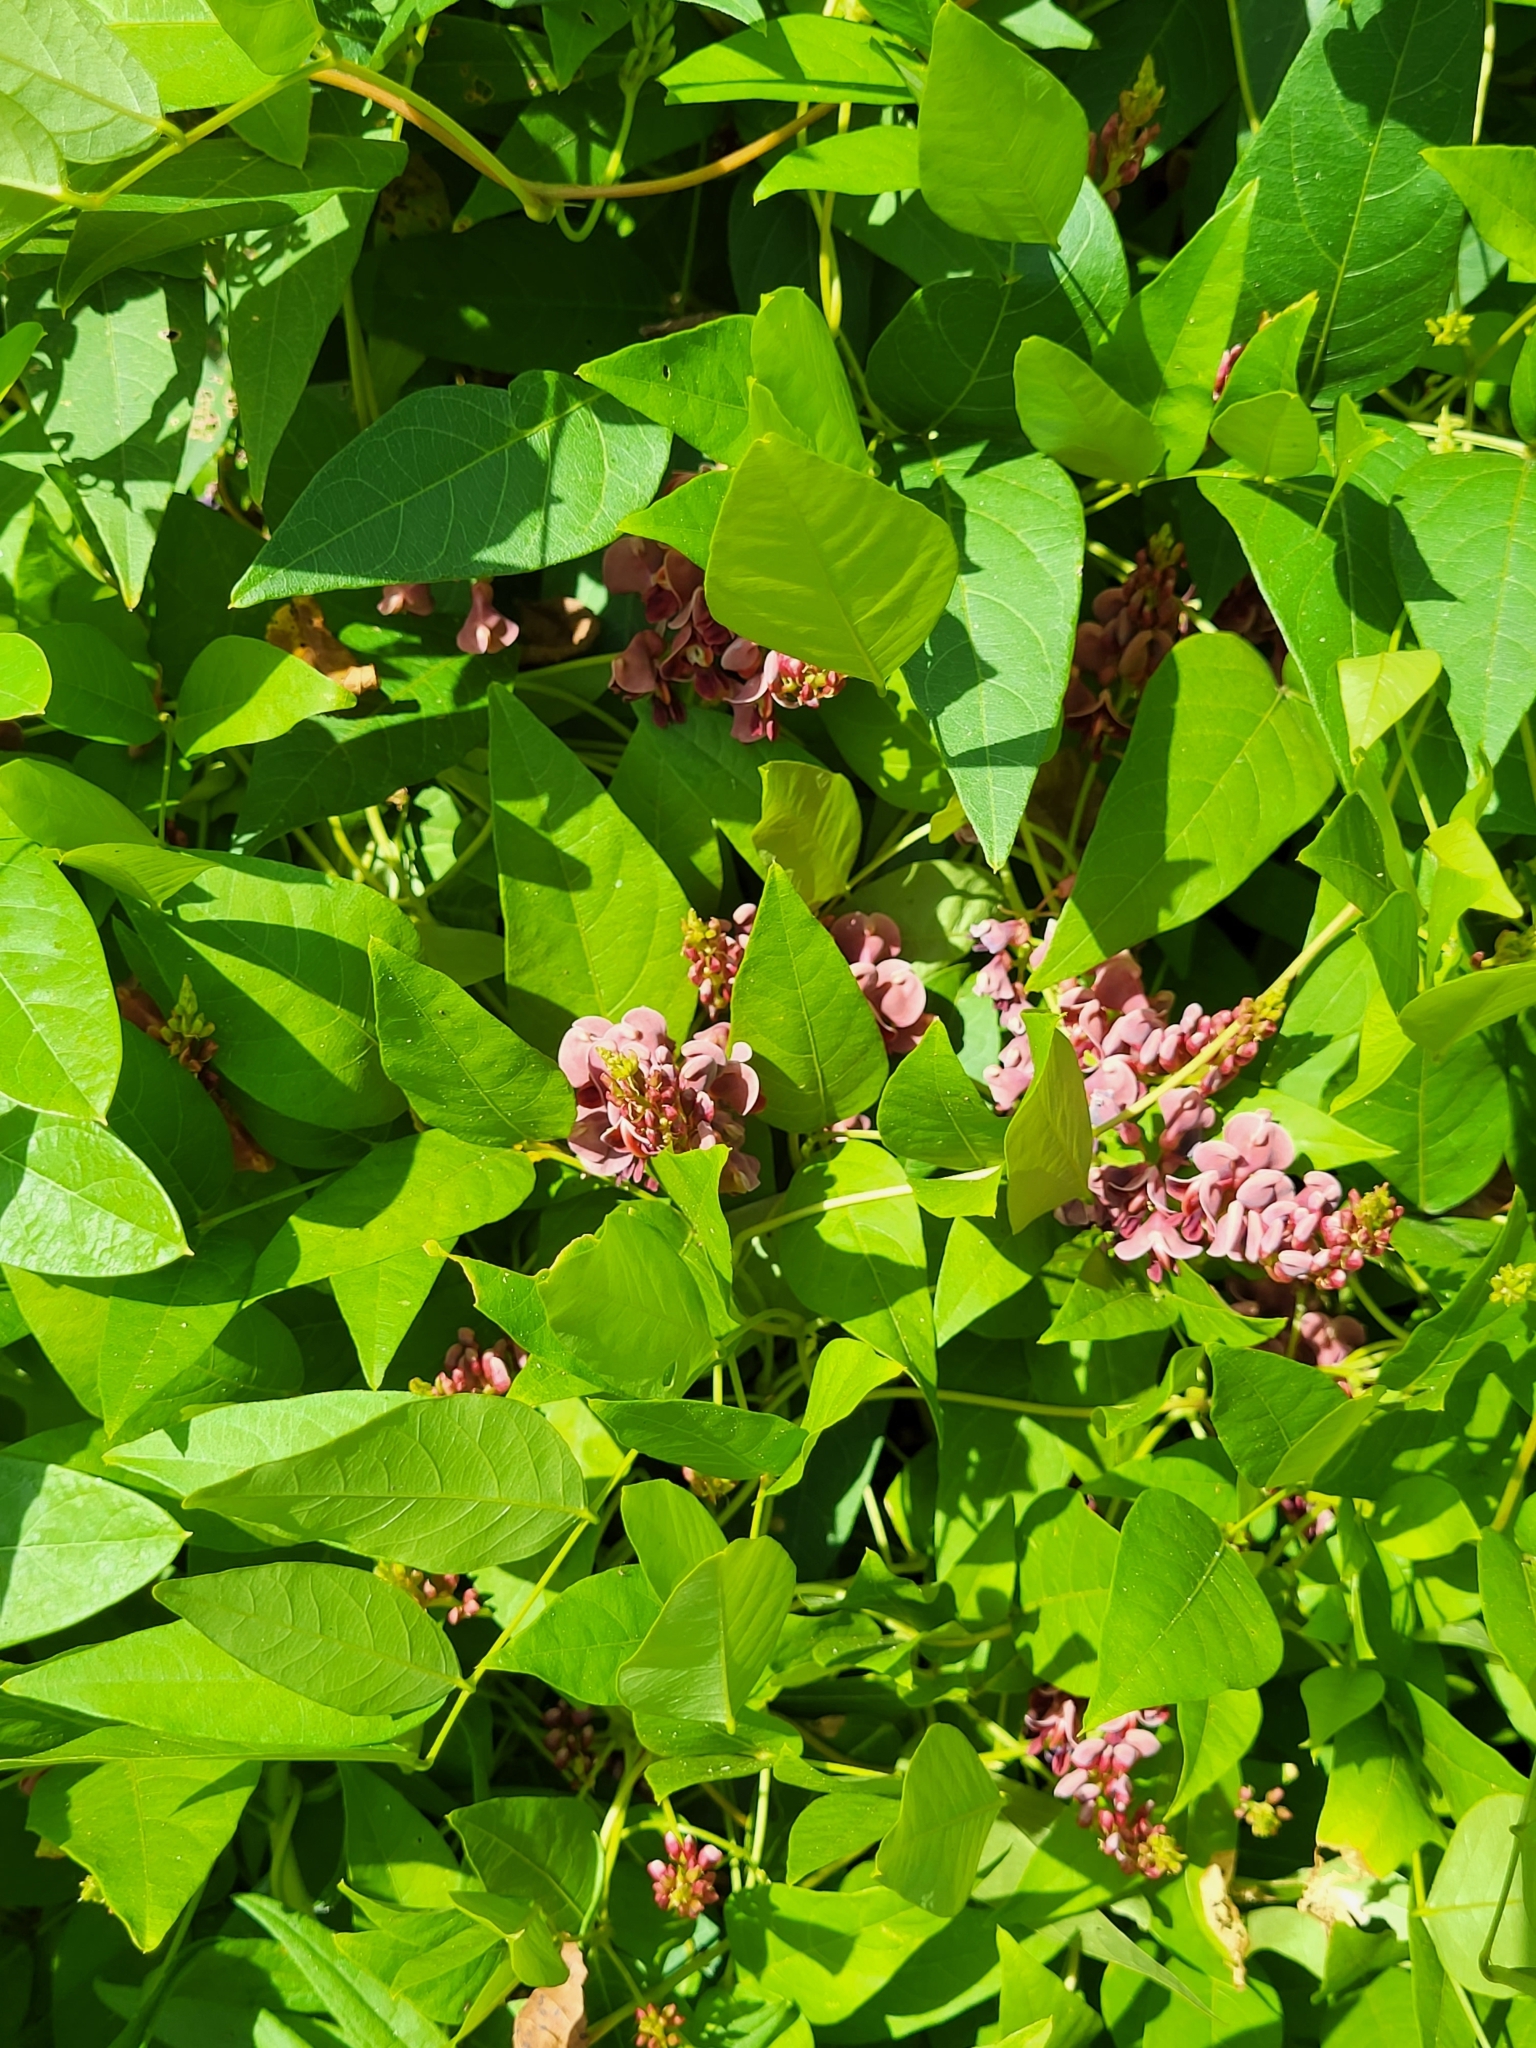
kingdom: Plantae
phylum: Tracheophyta
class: Magnoliopsida
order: Fabales
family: Fabaceae
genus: Apios
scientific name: Apios americana
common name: American potato-bean
